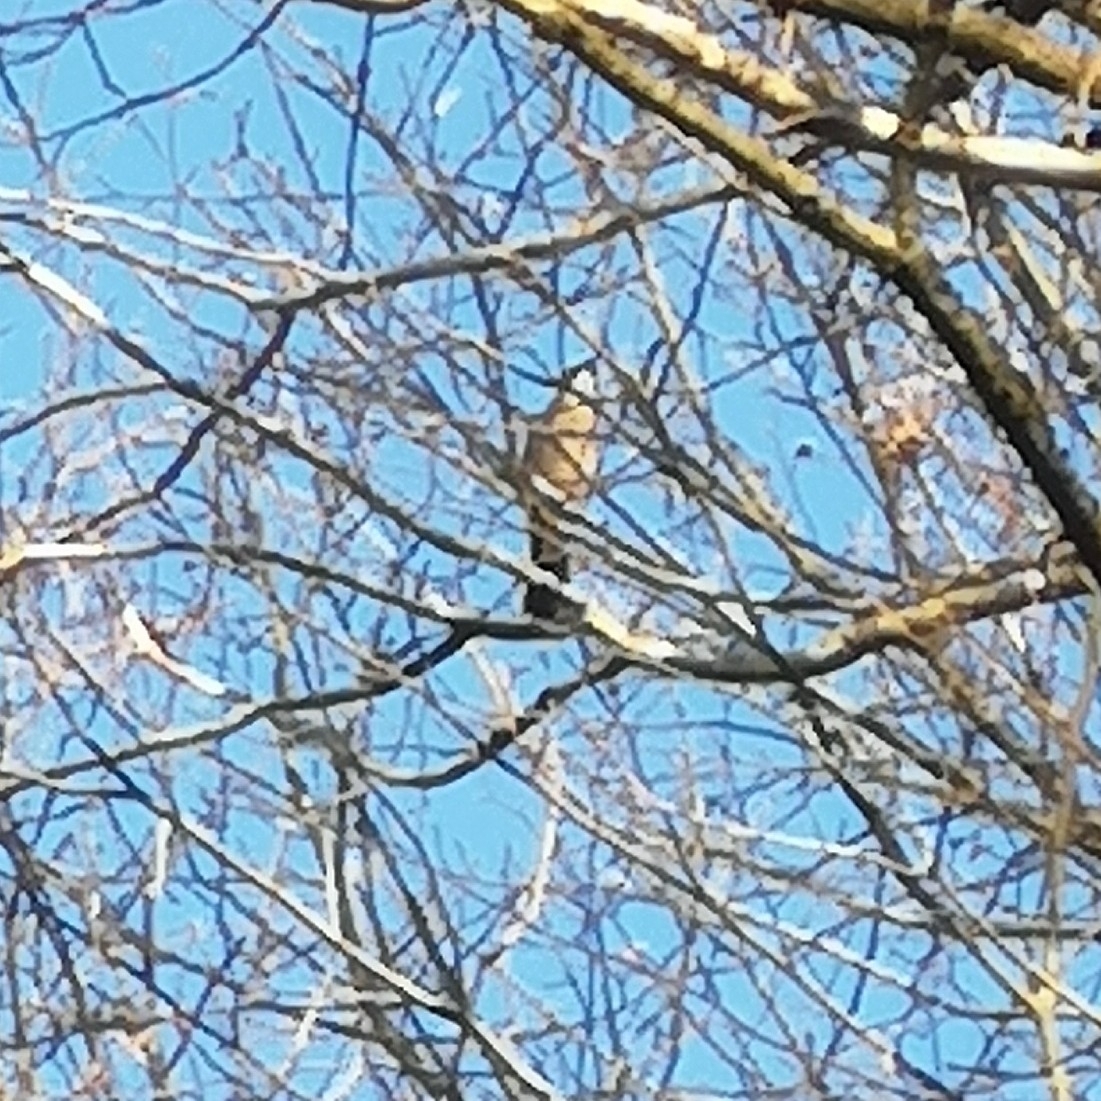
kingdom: Animalia
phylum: Chordata
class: Aves
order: Passeriformes
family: Corvidae
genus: Garrulus
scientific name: Garrulus glandarius
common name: Eurasian jay
